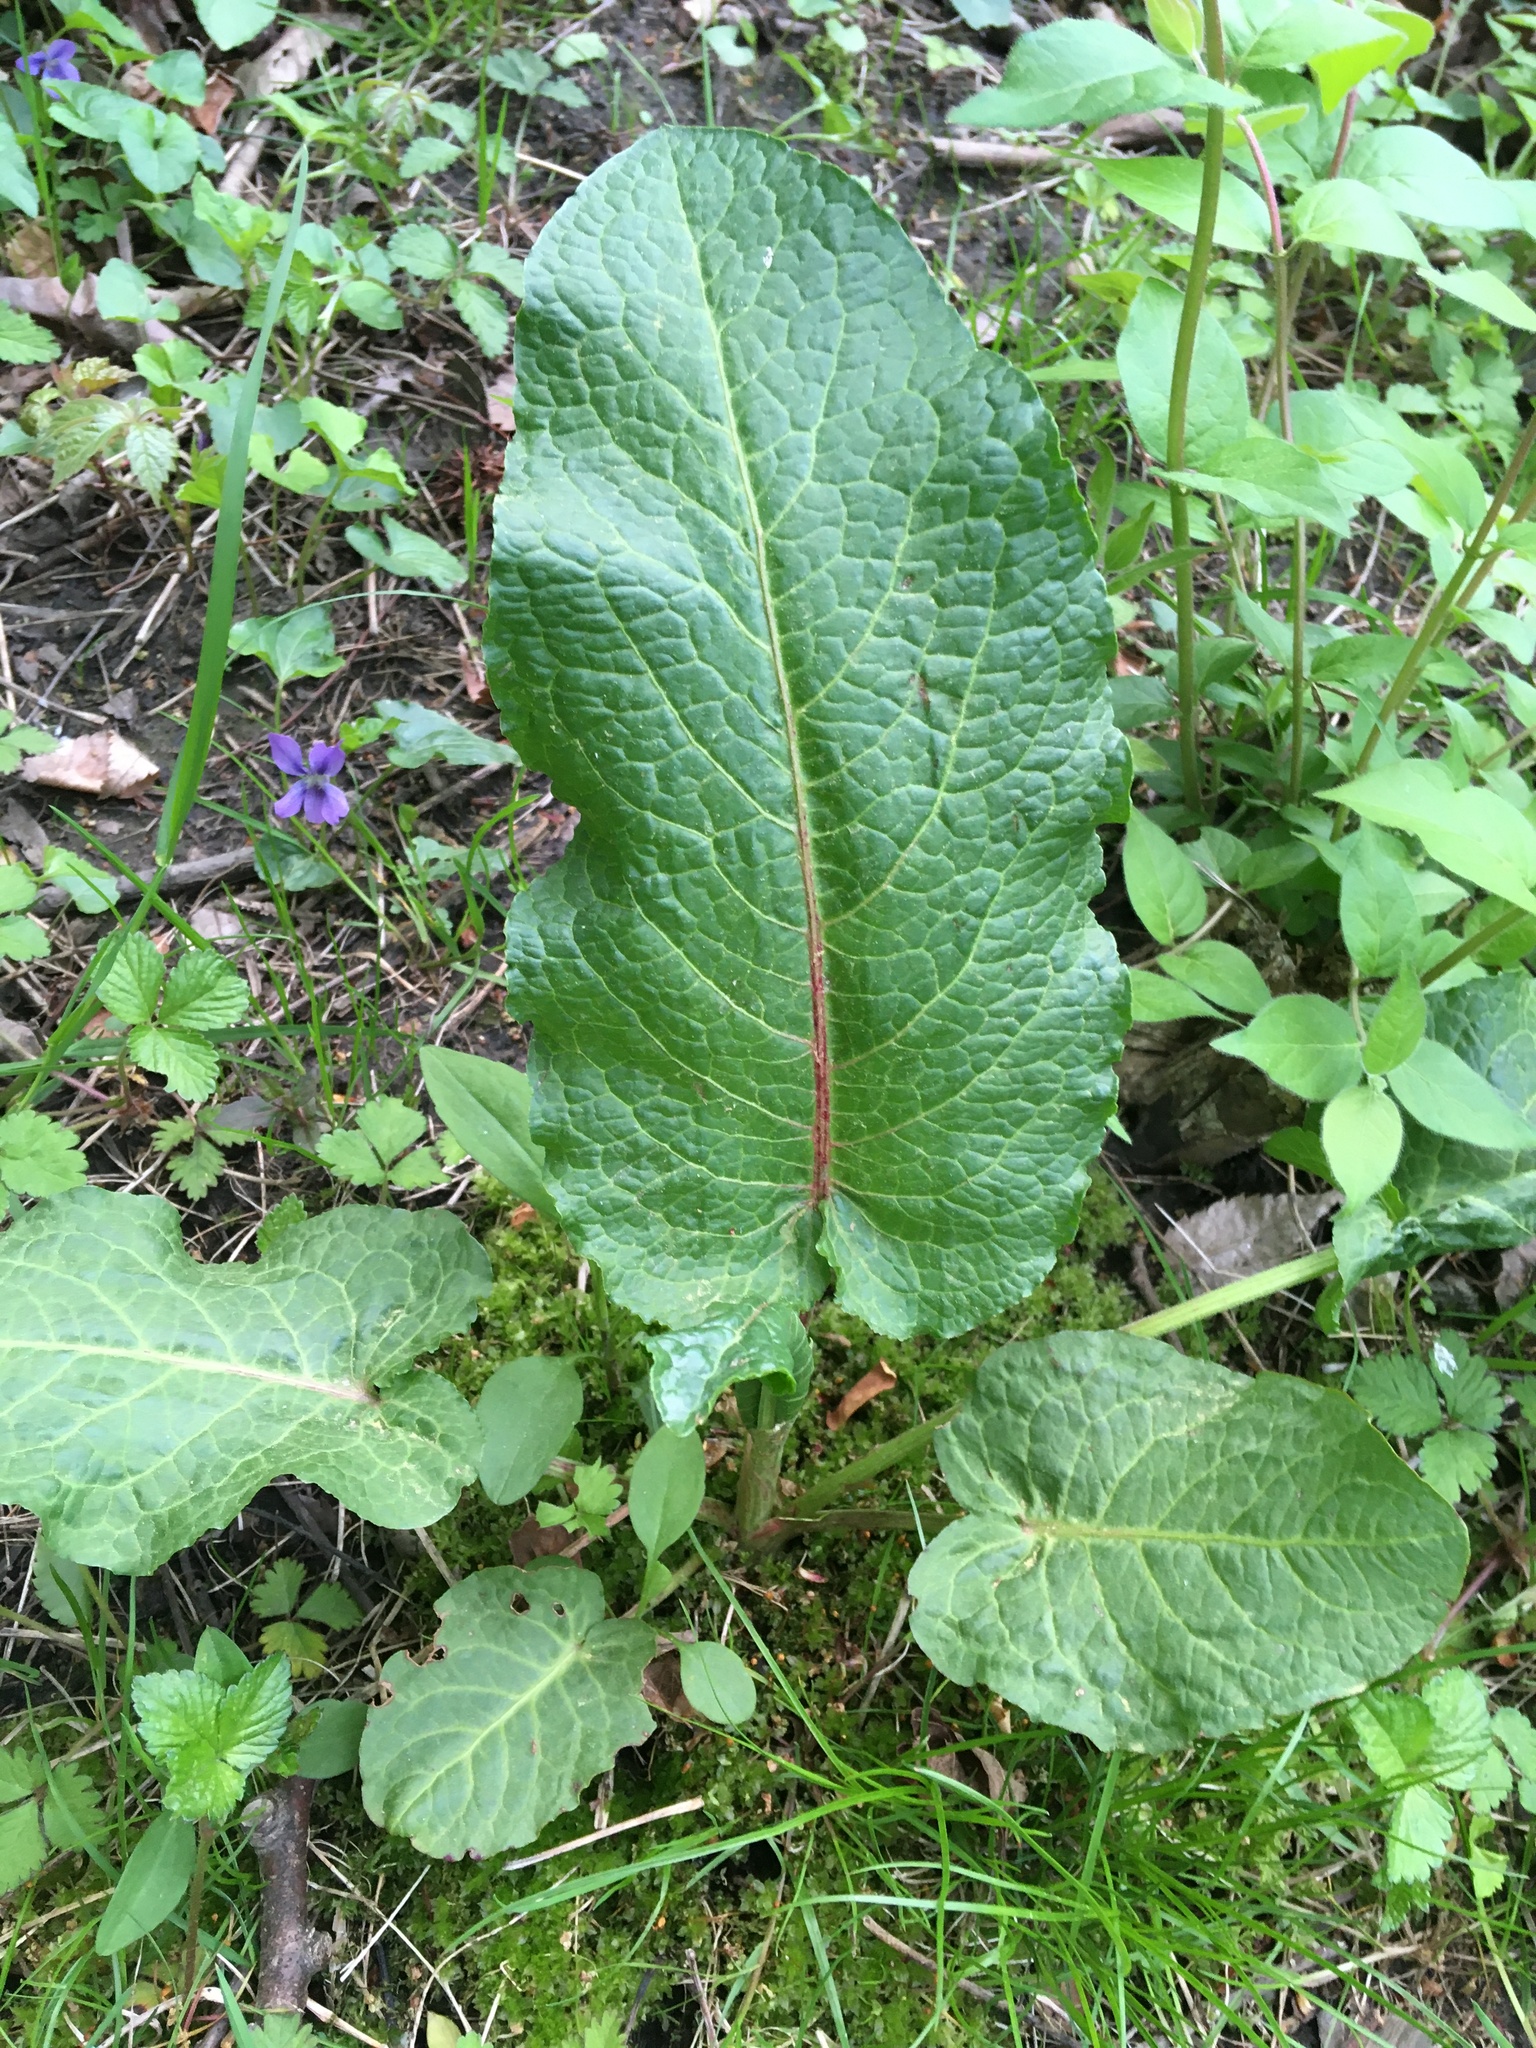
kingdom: Plantae
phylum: Tracheophyta
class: Magnoliopsida
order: Caryophyllales
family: Polygonaceae
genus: Rumex
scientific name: Rumex obtusifolius
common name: Bitter dock
